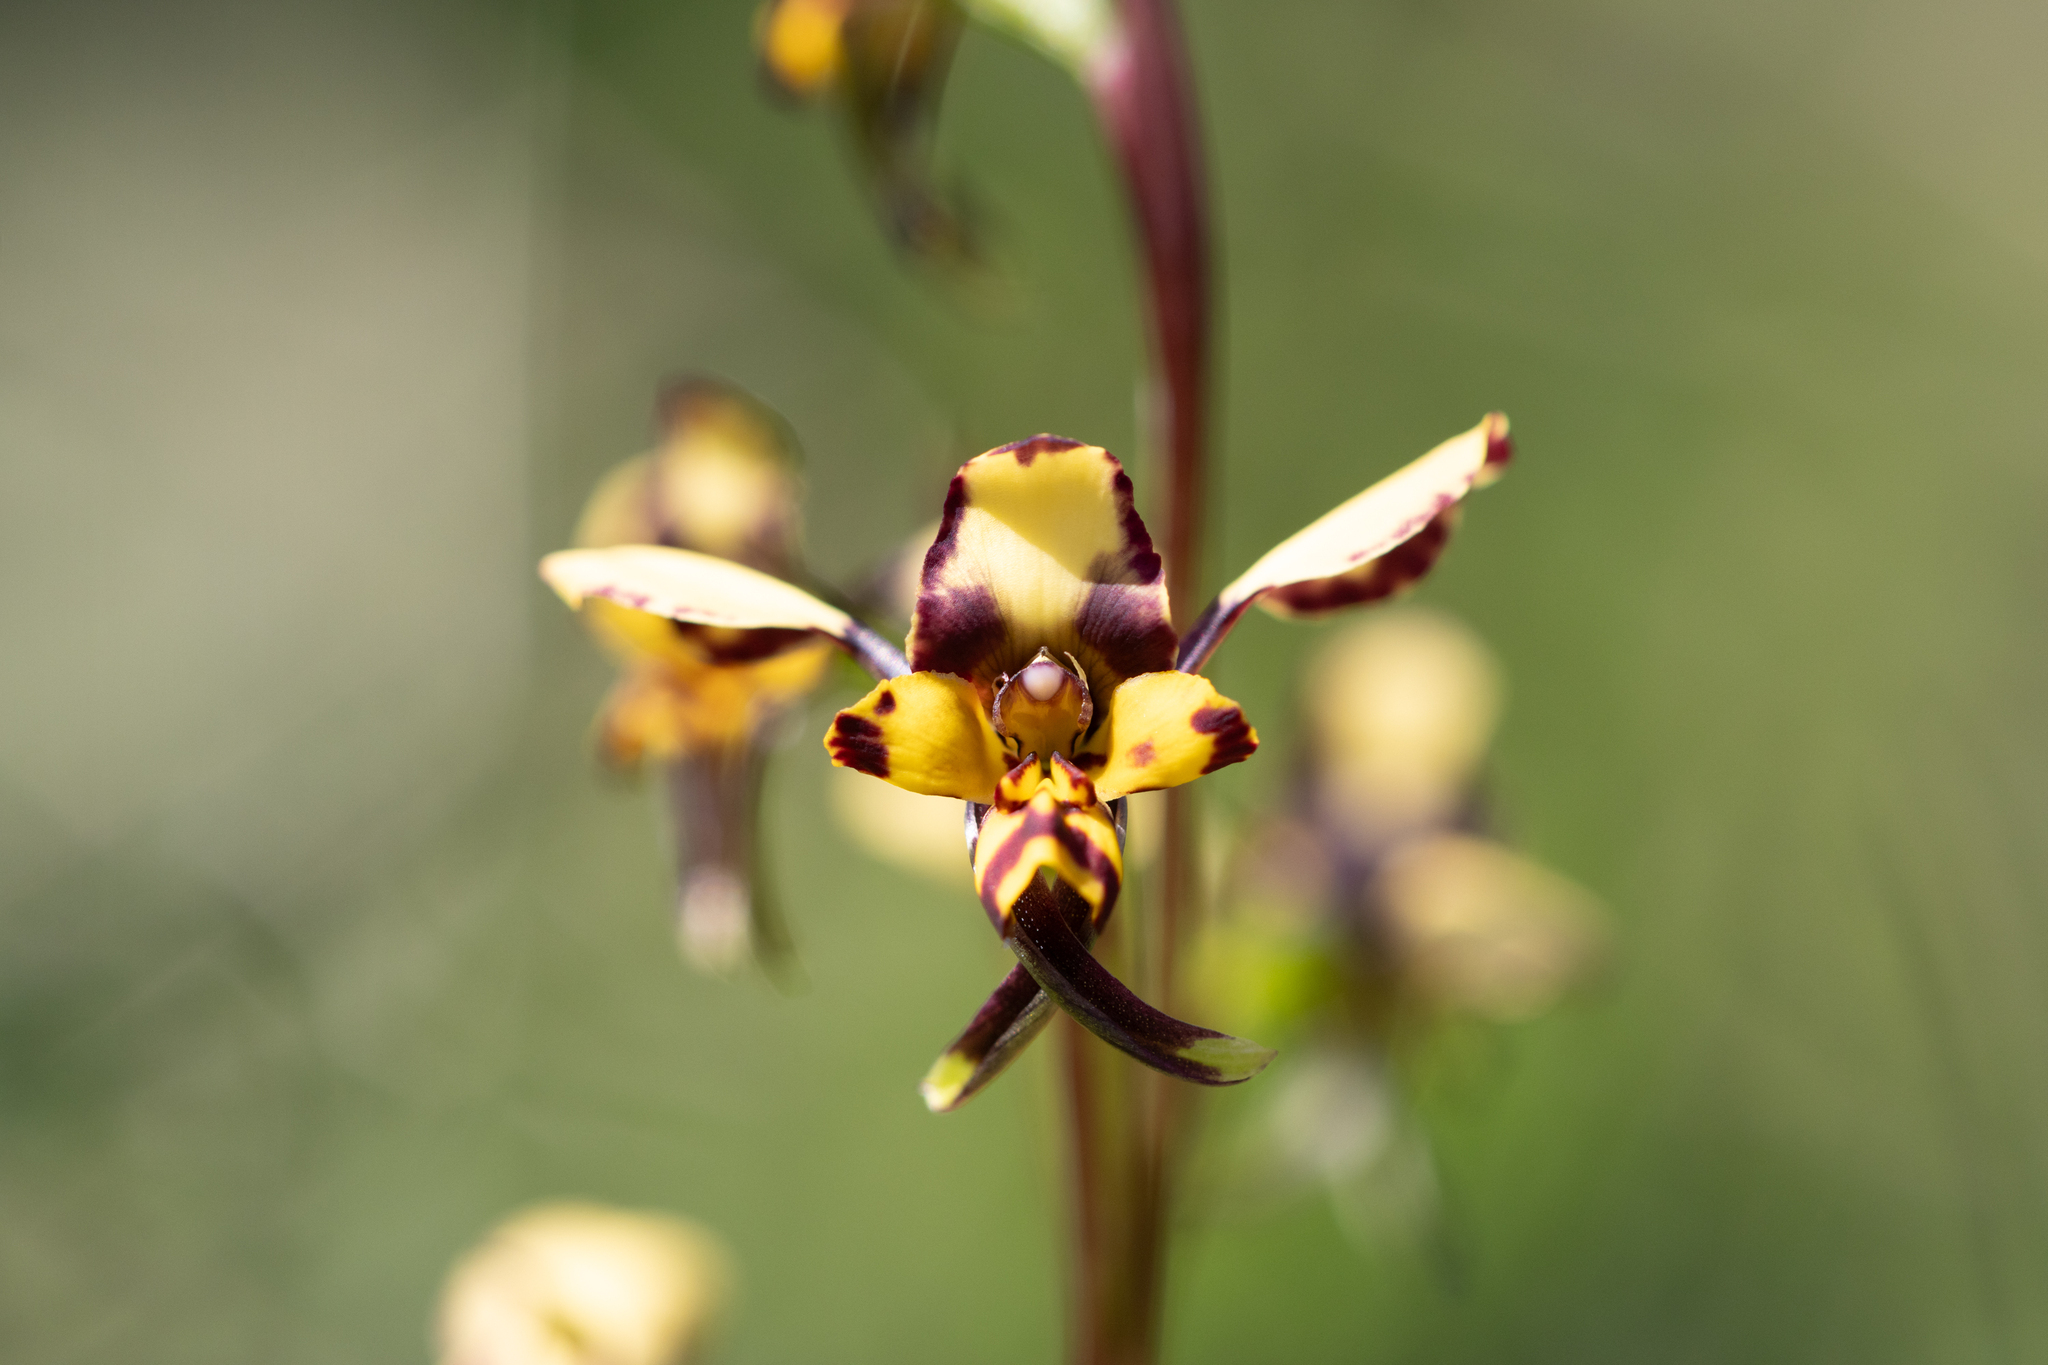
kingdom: Plantae
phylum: Tracheophyta
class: Liliopsida
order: Asparagales
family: Orchidaceae
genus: Diuris
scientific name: Diuris pardina
